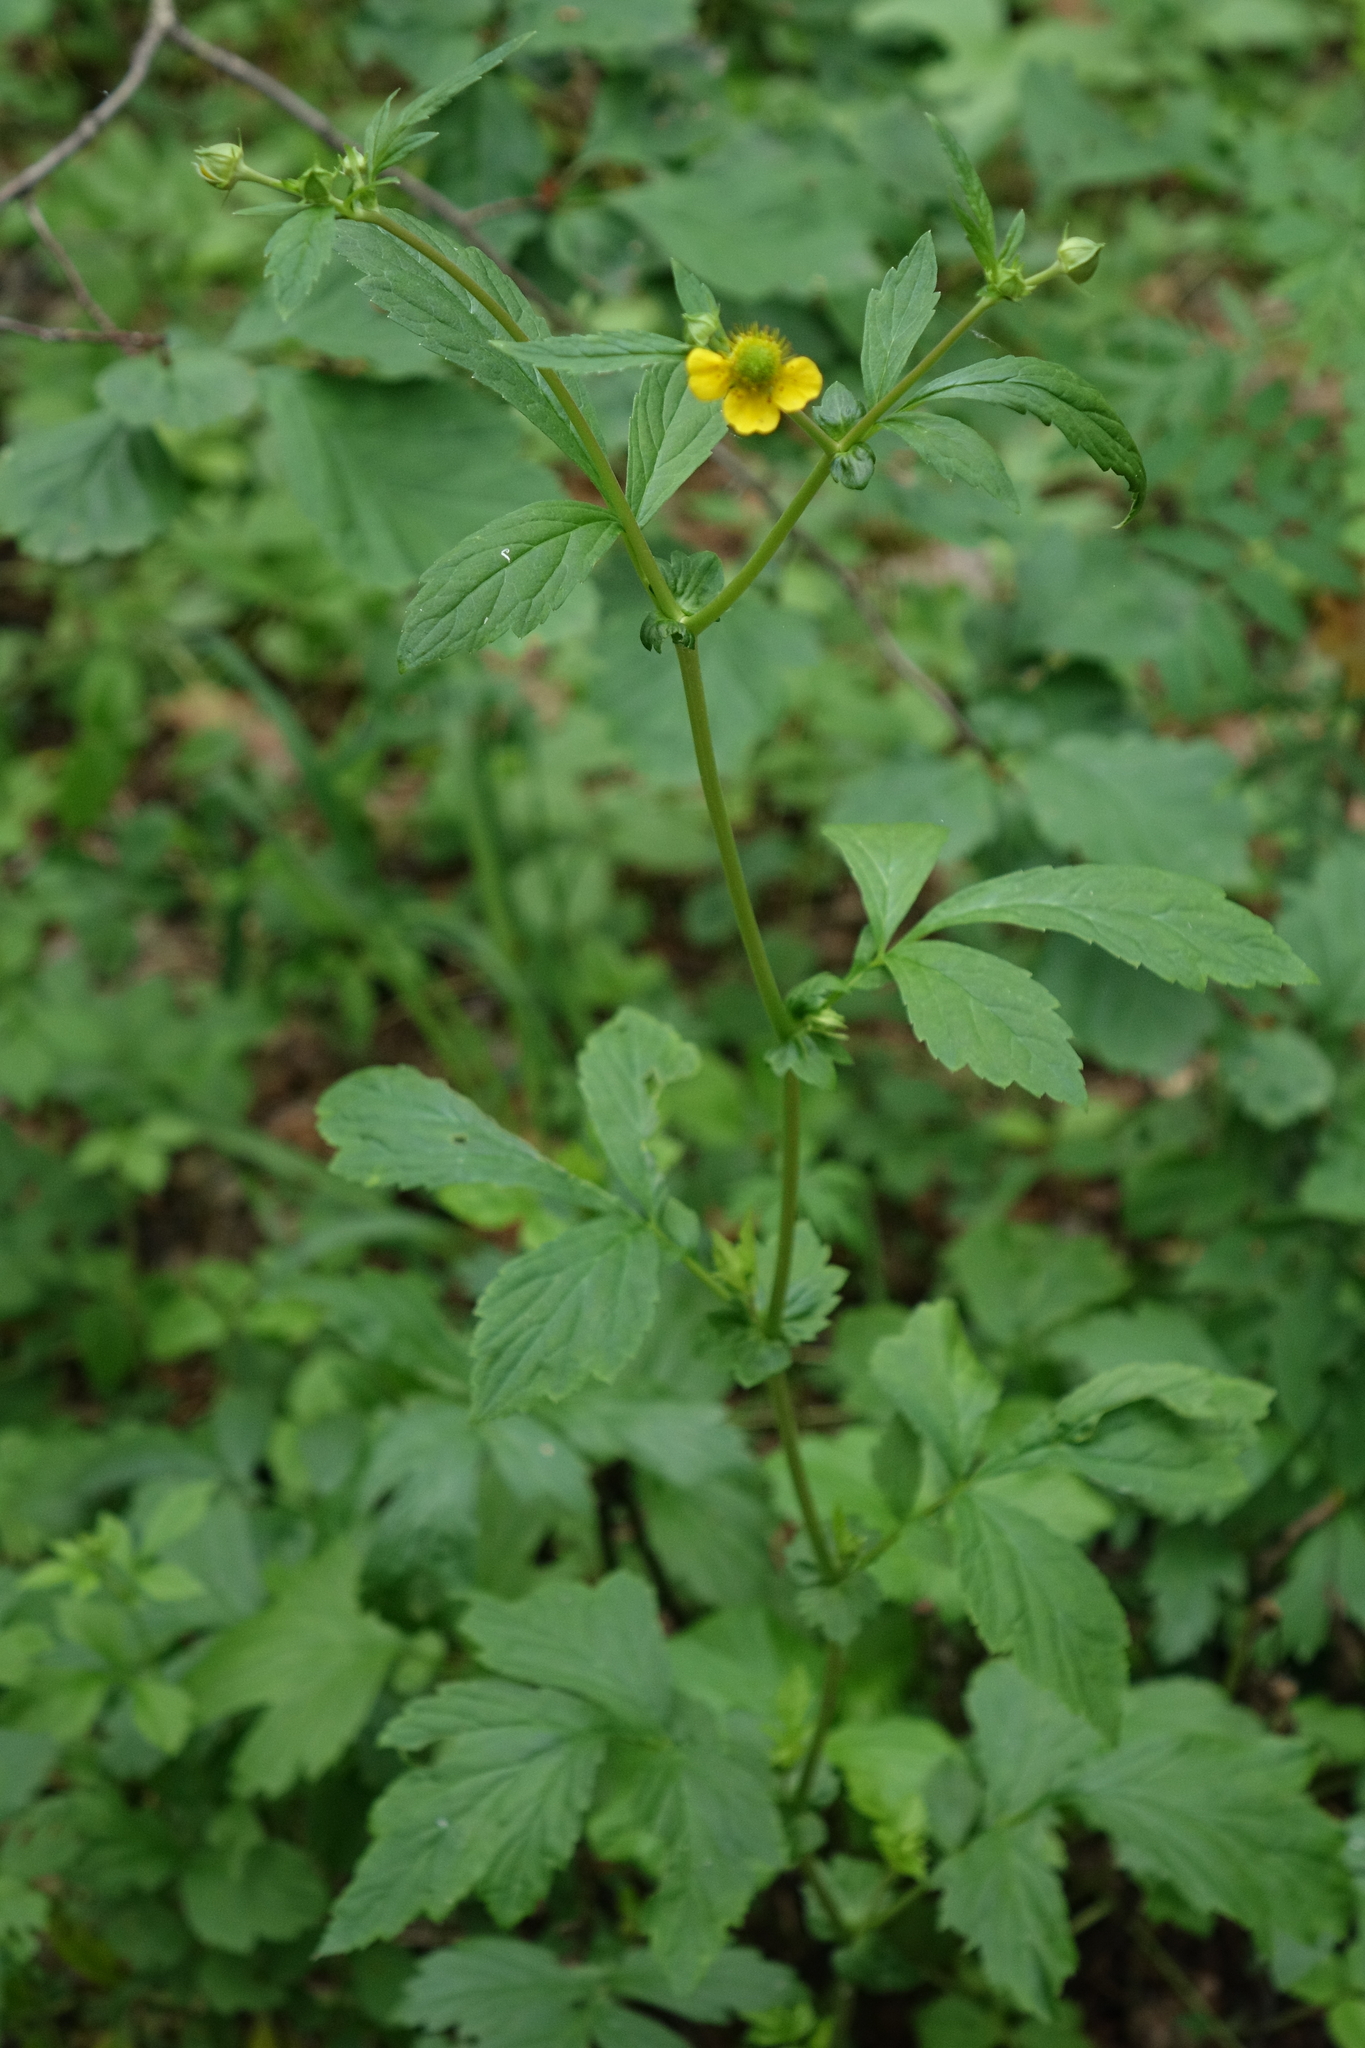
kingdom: Plantae
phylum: Tracheophyta
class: Magnoliopsida
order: Rosales
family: Rosaceae
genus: Geum
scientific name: Geum aleppicum
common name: Yellow avens
